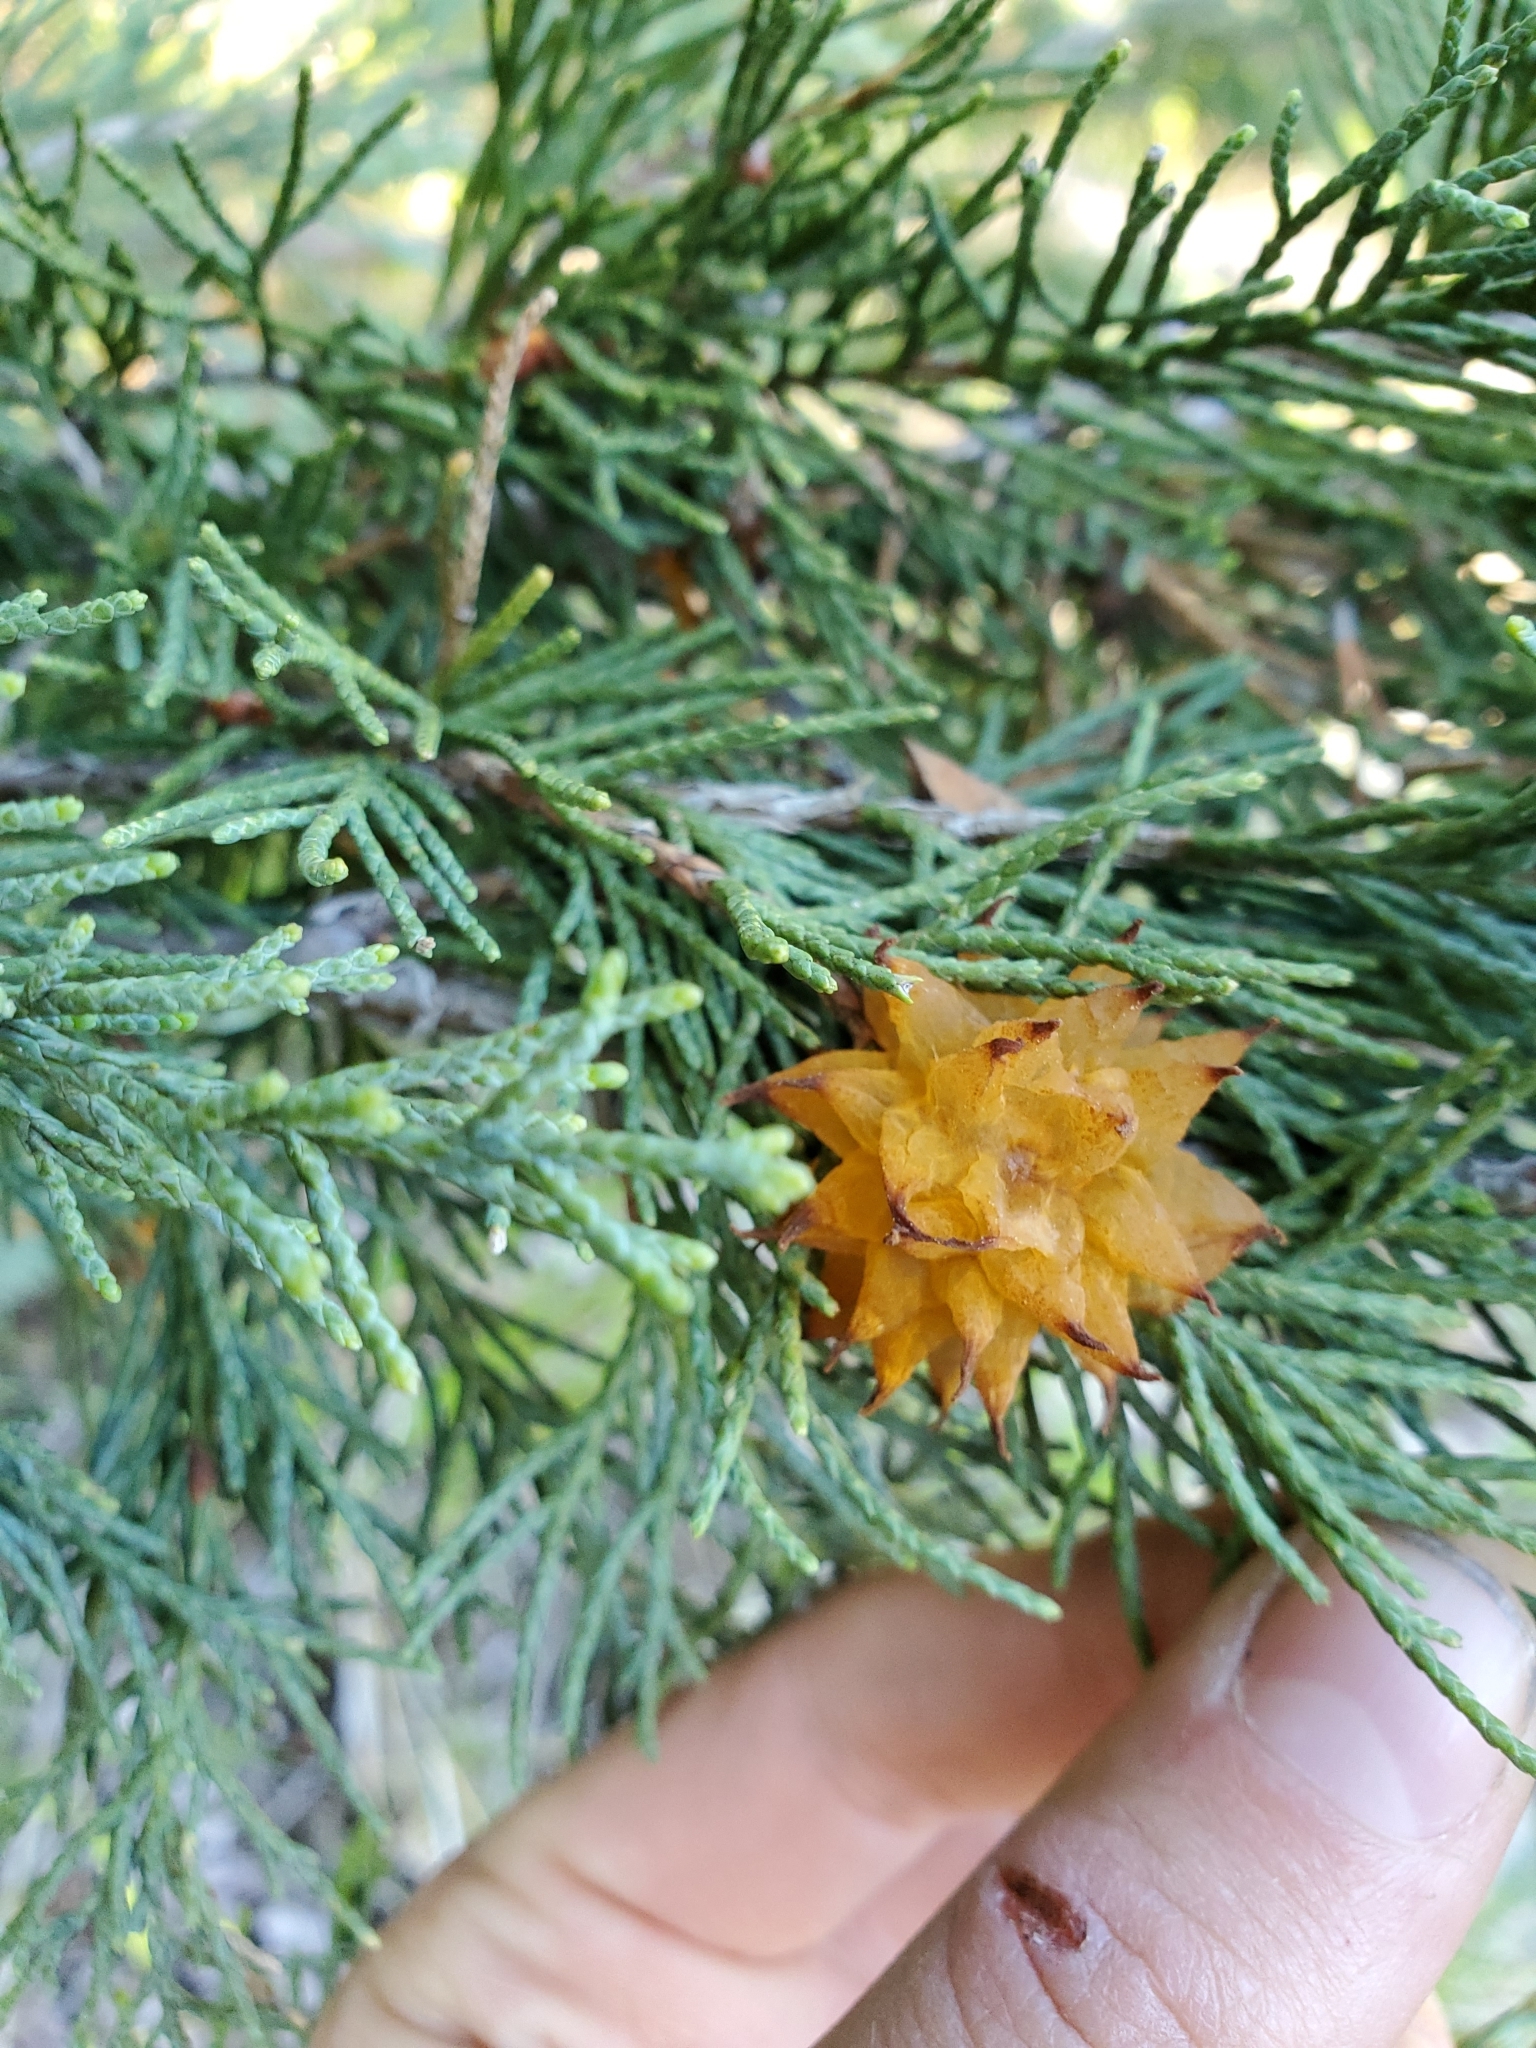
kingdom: Fungi
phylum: Basidiomycota
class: Pucciniomycetes
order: Pucciniales
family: Gymnosporangiaceae
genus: Gymnosporangium
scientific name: Gymnosporangium juniperi-virginianae
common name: Juniper-apple rust
